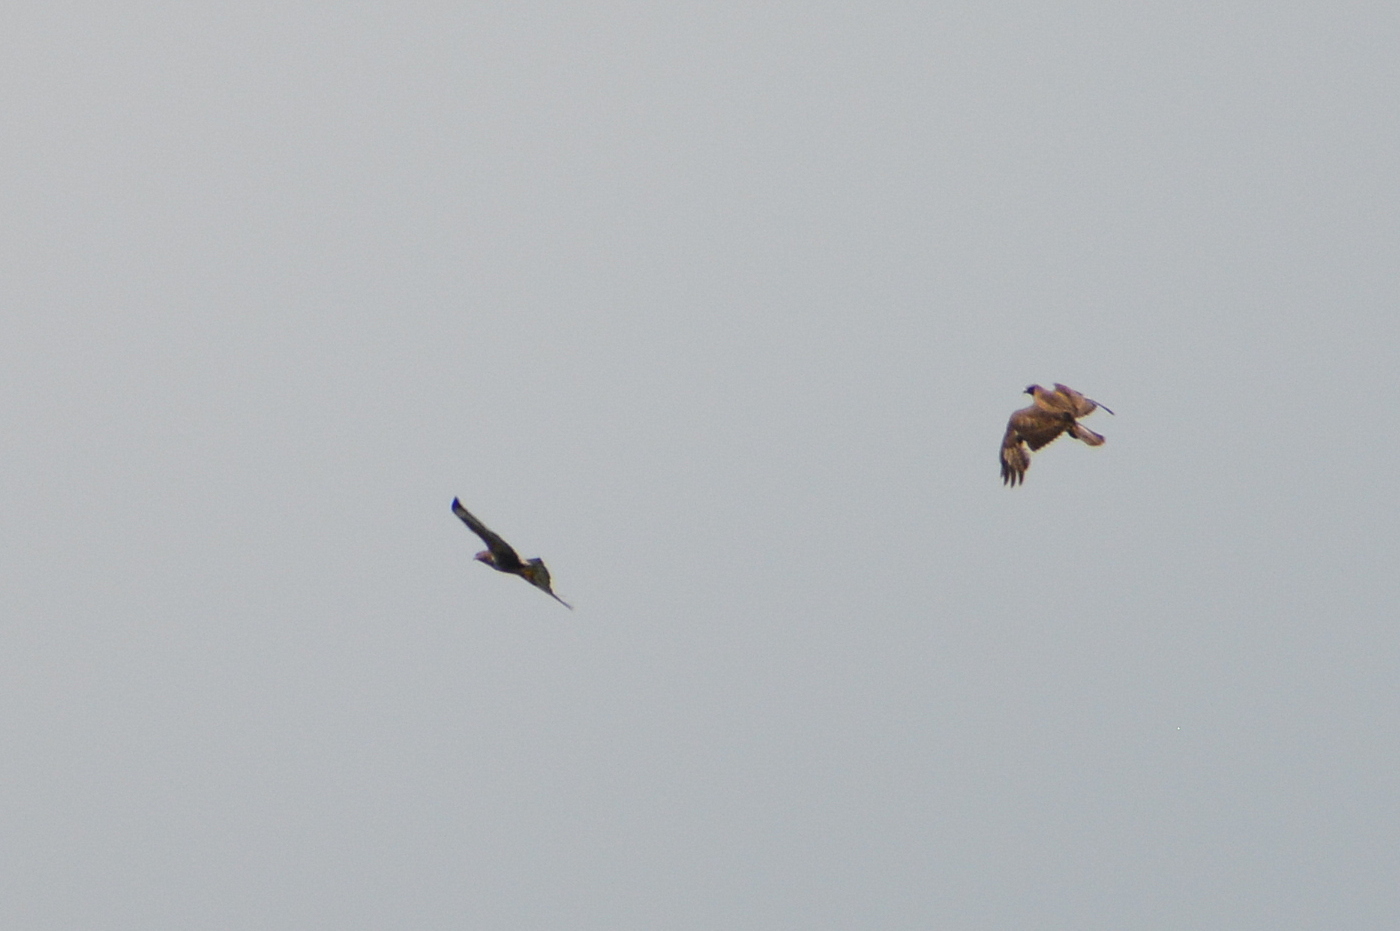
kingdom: Animalia
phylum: Chordata
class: Aves
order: Accipitriformes
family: Accipitridae
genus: Buteo
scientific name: Buteo buteo
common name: Common buzzard
